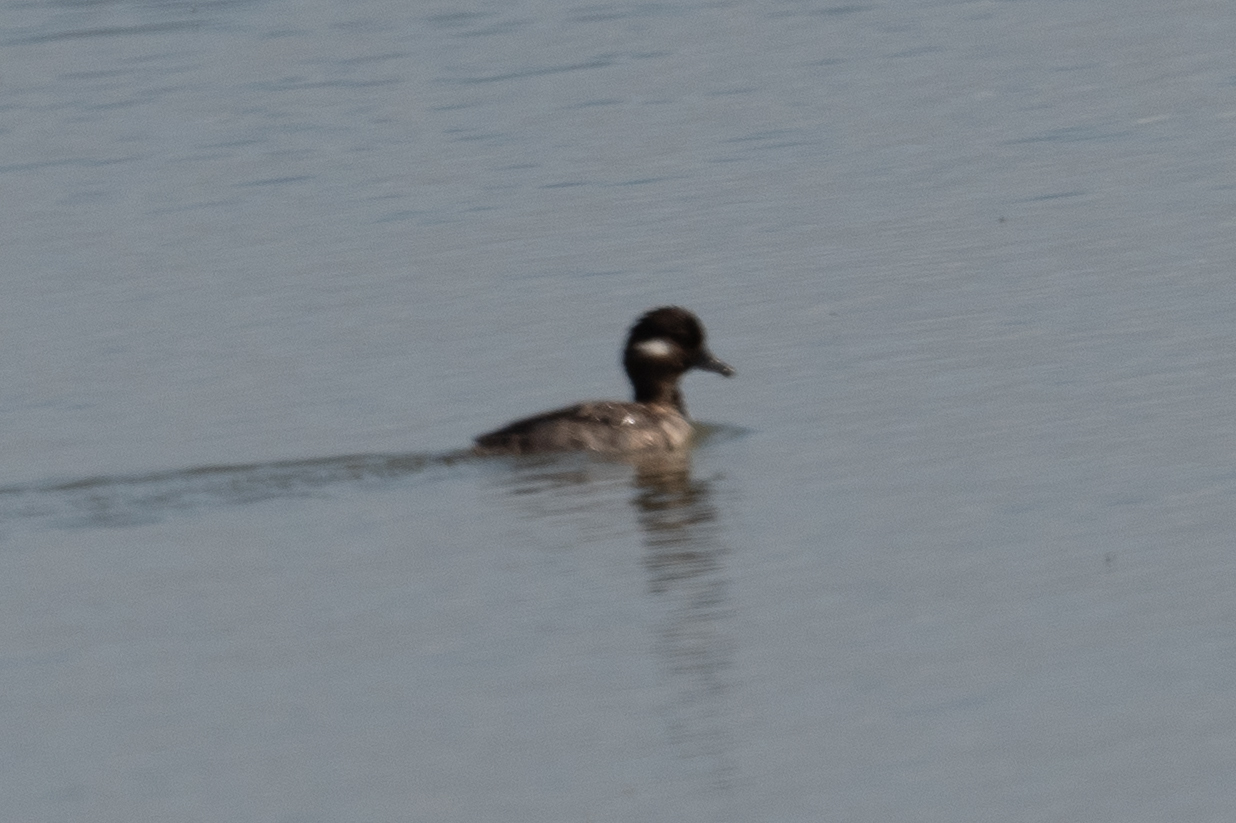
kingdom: Animalia
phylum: Chordata
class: Aves
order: Anseriformes
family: Anatidae
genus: Bucephala
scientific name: Bucephala albeola
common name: Bufflehead
